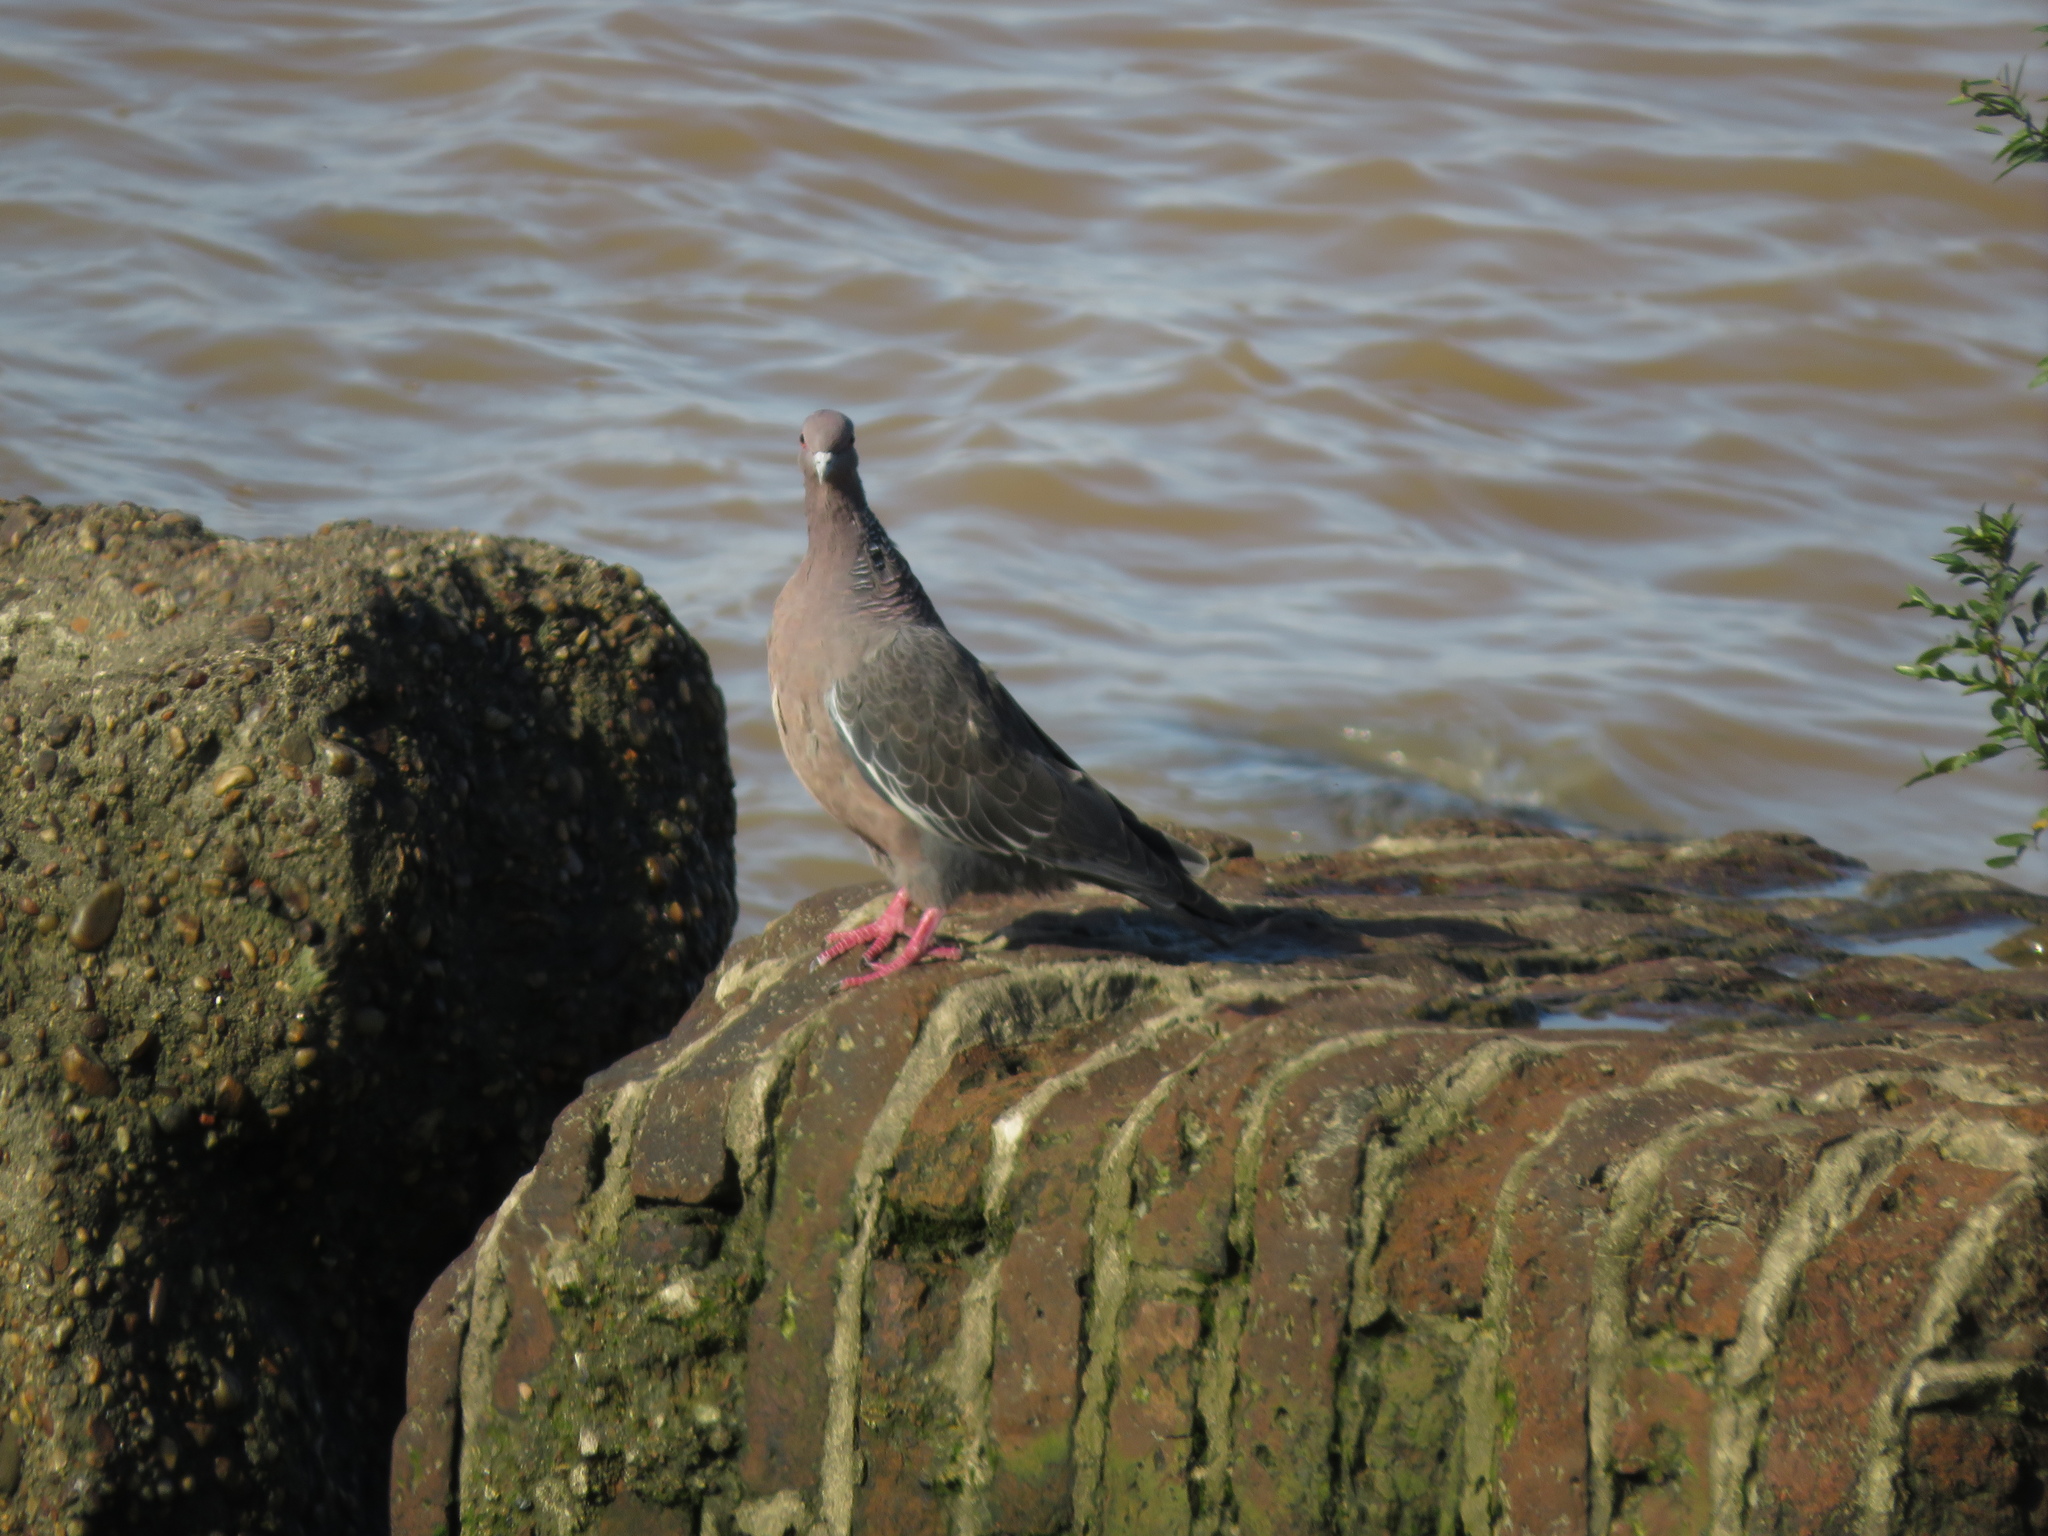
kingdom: Animalia
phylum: Chordata
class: Aves
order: Columbiformes
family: Columbidae
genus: Patagioenas
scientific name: Patagioenas picazuro
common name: Picazuro pigeon
